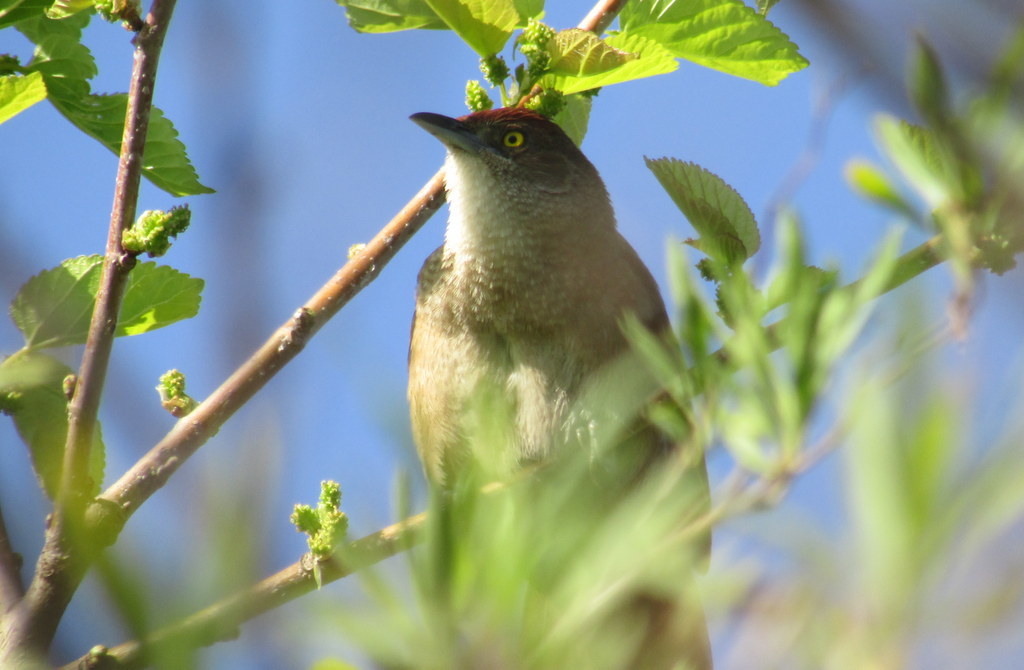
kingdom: Animalia
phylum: Chordata
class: Aves
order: Passeriformes
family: Furnariidae
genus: Phacellodomus
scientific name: Phacellodomus ruber
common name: Greater thornbird
